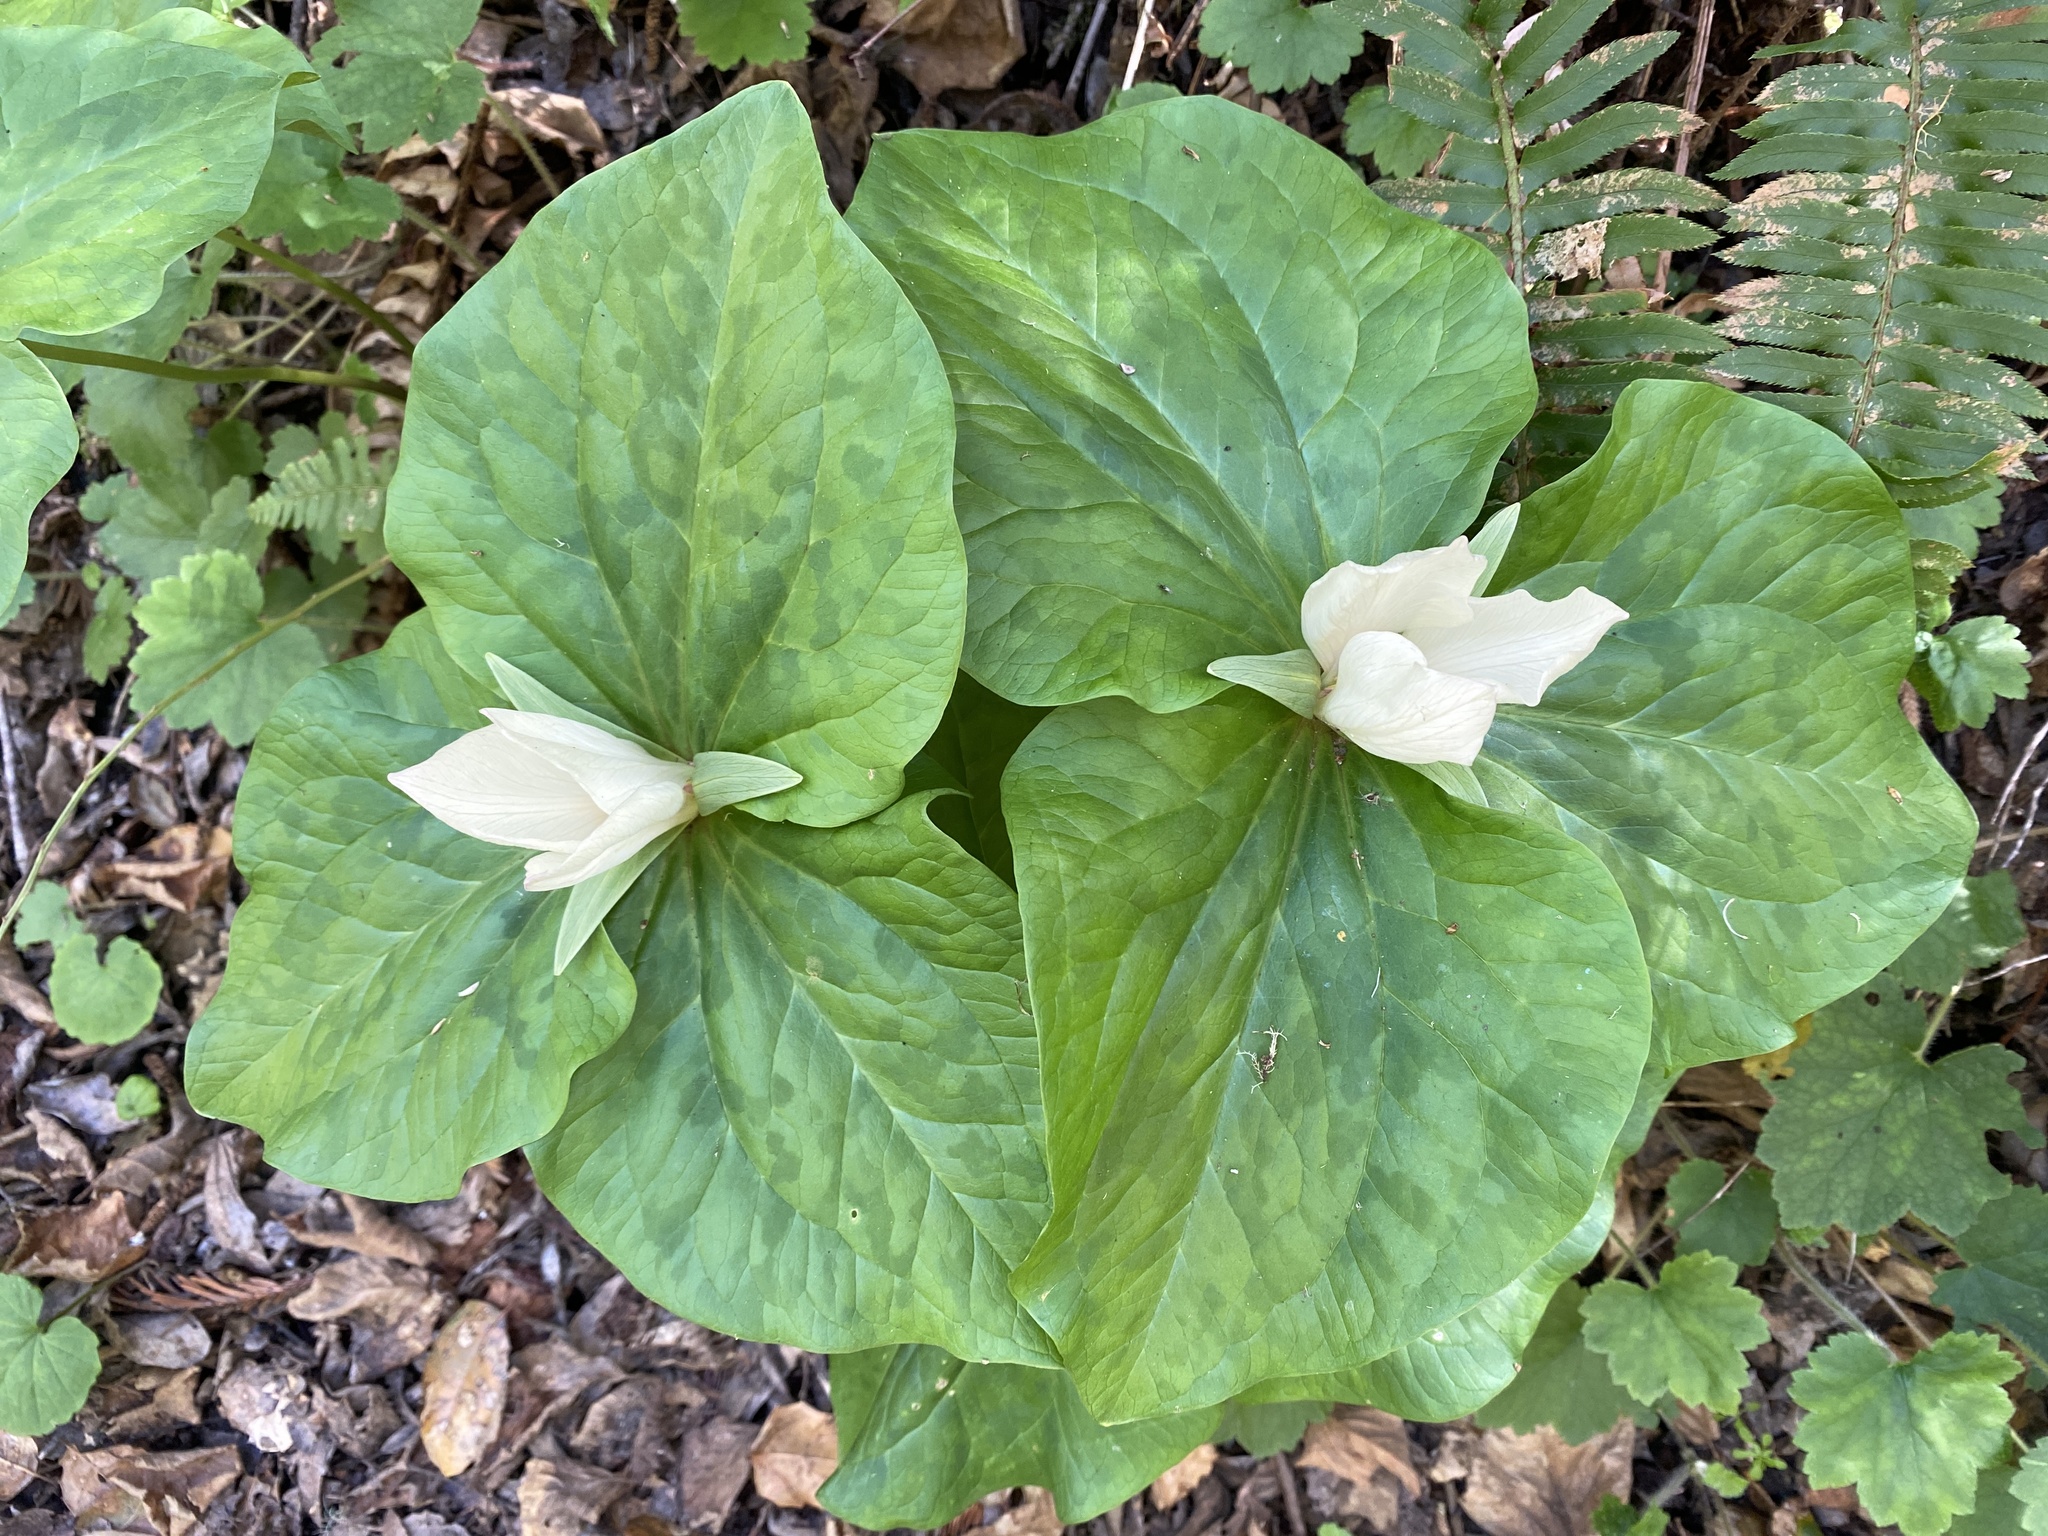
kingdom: Plantae
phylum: Tracheophyta
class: Liliopsida
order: Liliales
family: Melanthiaceae
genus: Trillium
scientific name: Trillium chloropetalum
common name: Giant trillium
